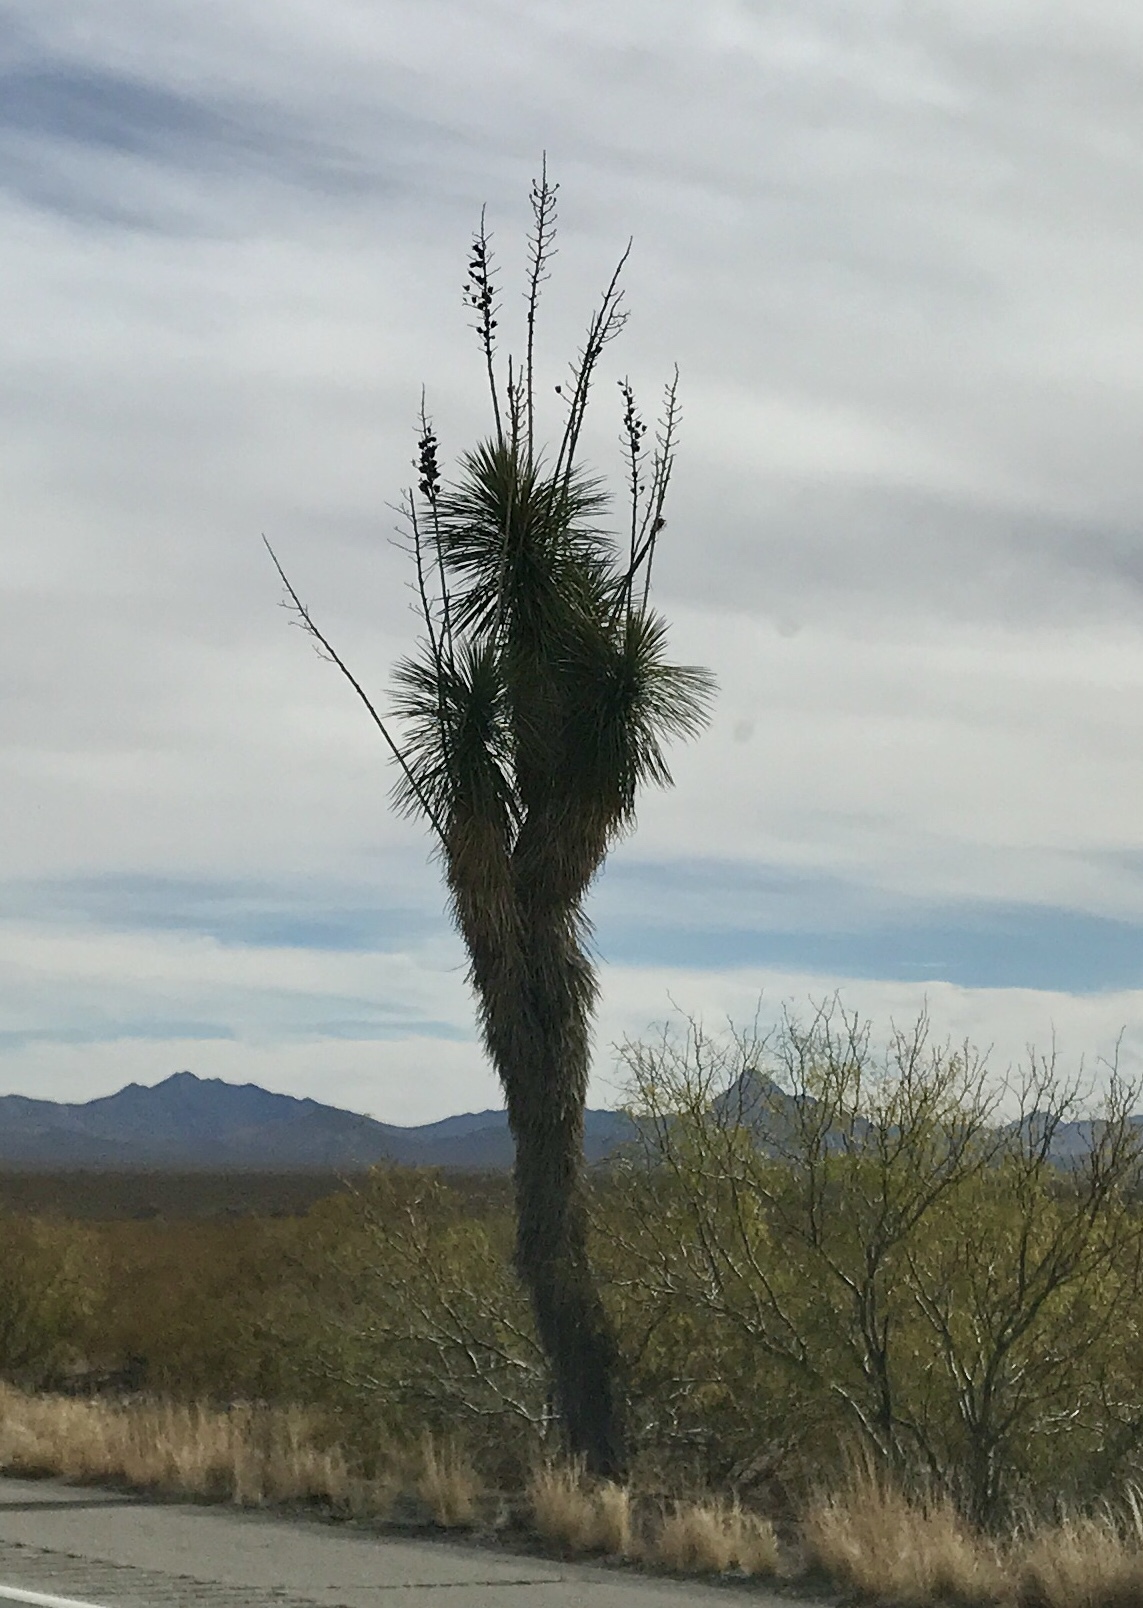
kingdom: Plantae
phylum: Tracheophyta
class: Liliopsida
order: Asparagales
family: Asparagaceae
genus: Yucca
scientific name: Yucca elata
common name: Palmella
